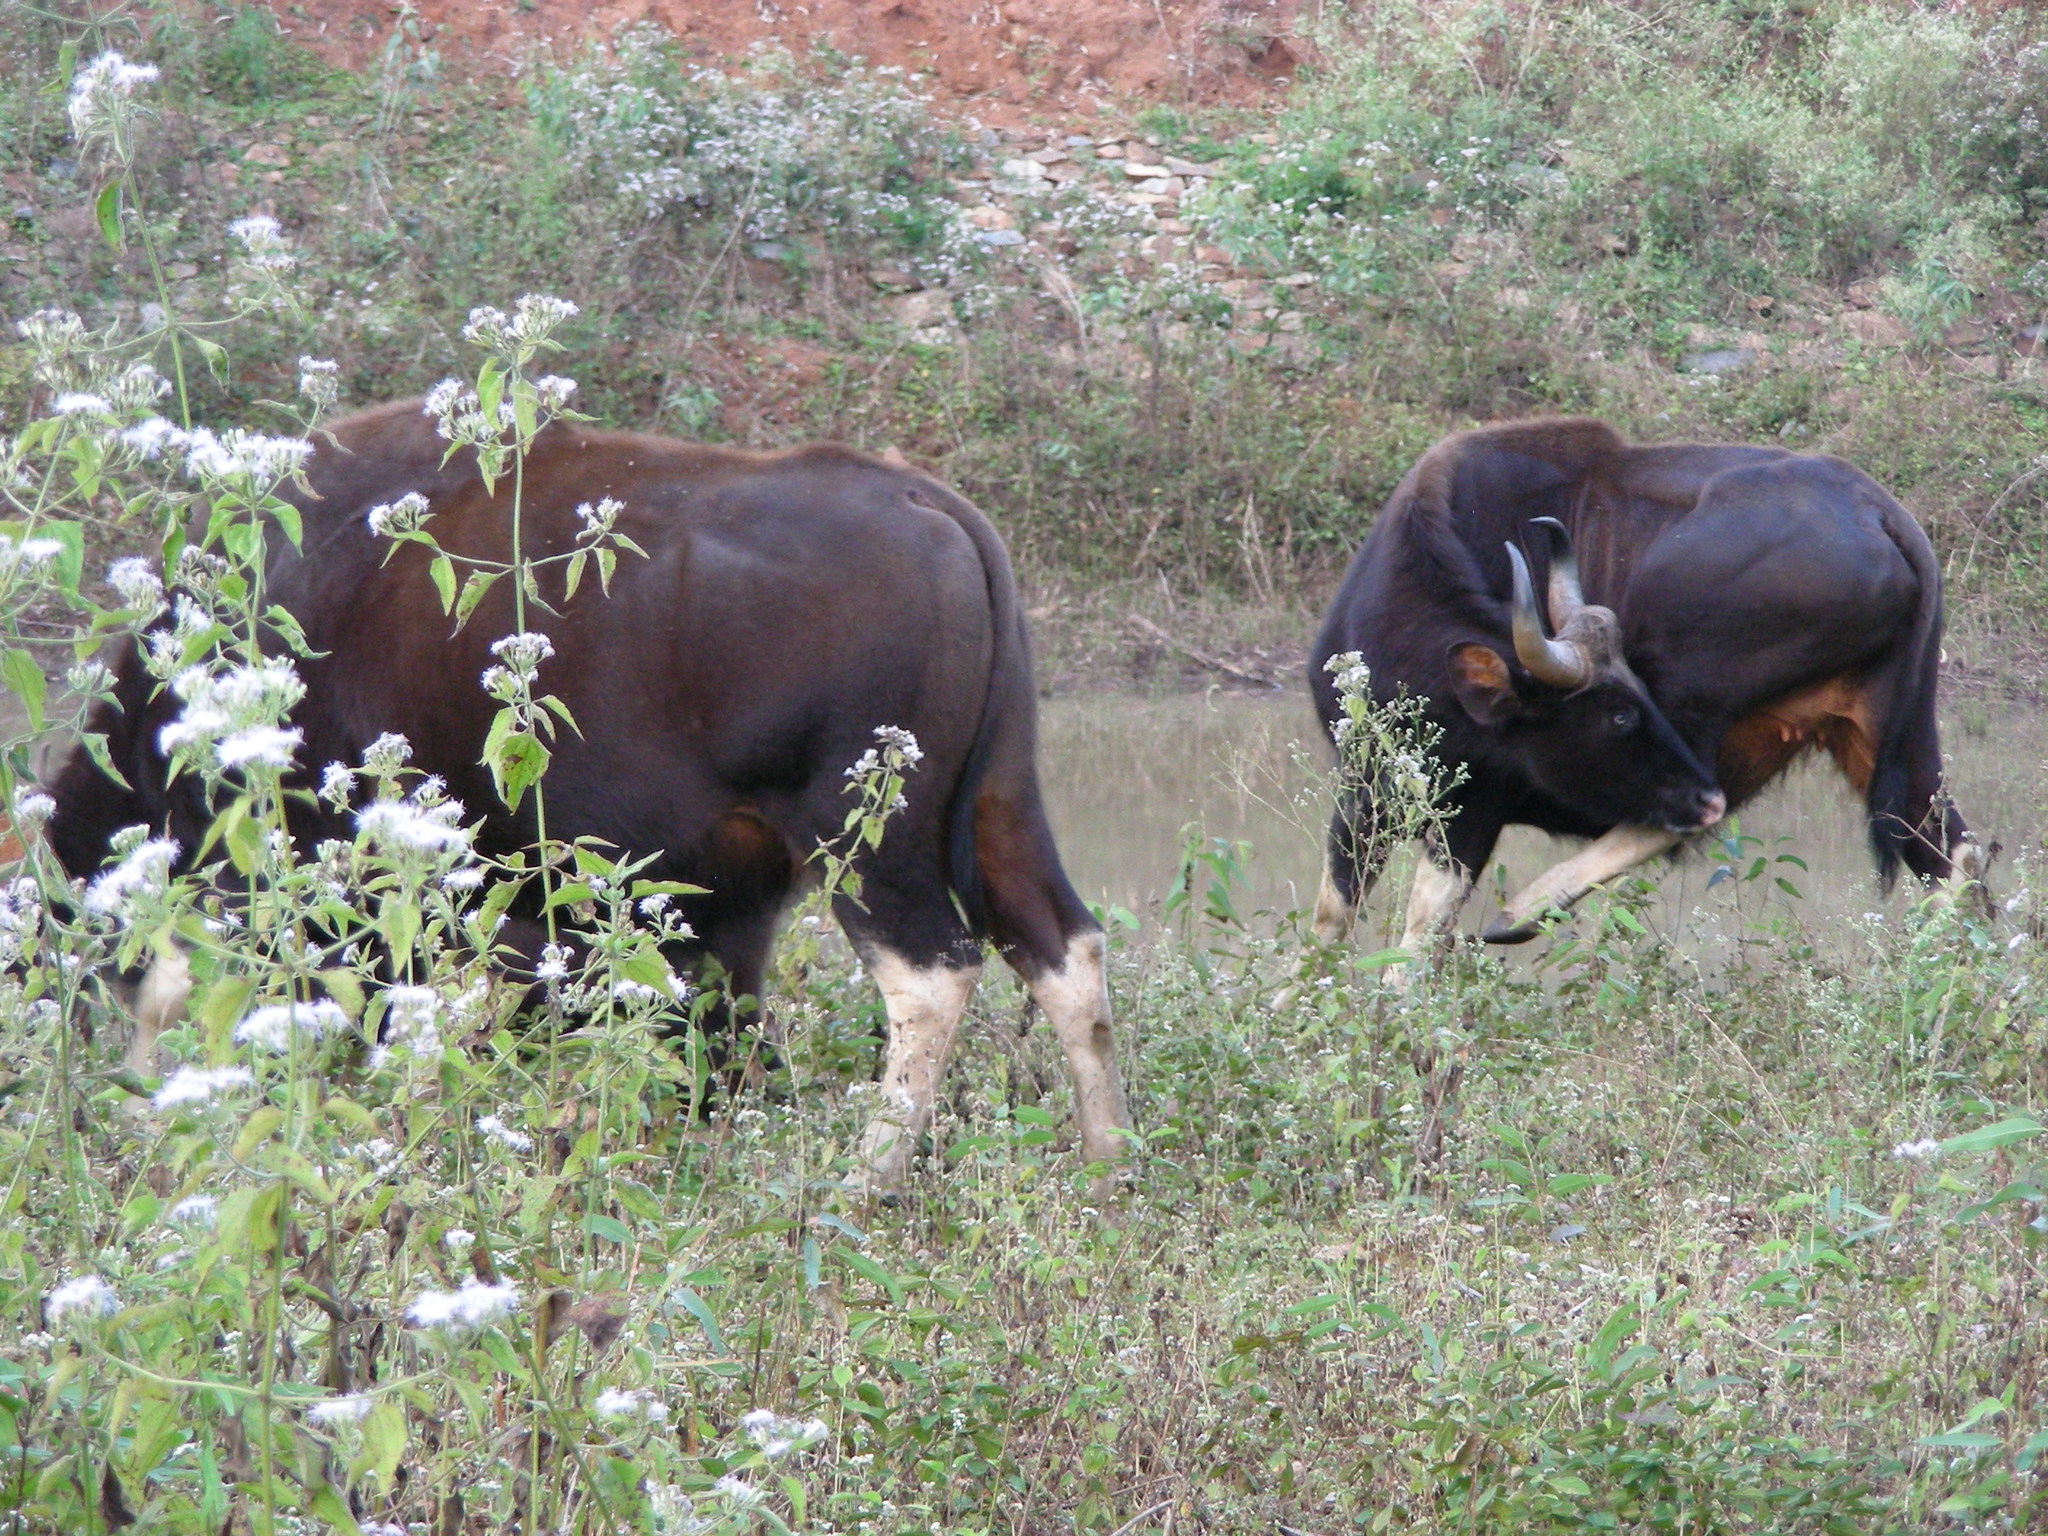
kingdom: Animalia
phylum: Chordata
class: Mammalia
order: Artiodactyla
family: Bovidae
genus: Bos
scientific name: Bos frontalis
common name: Gaur
